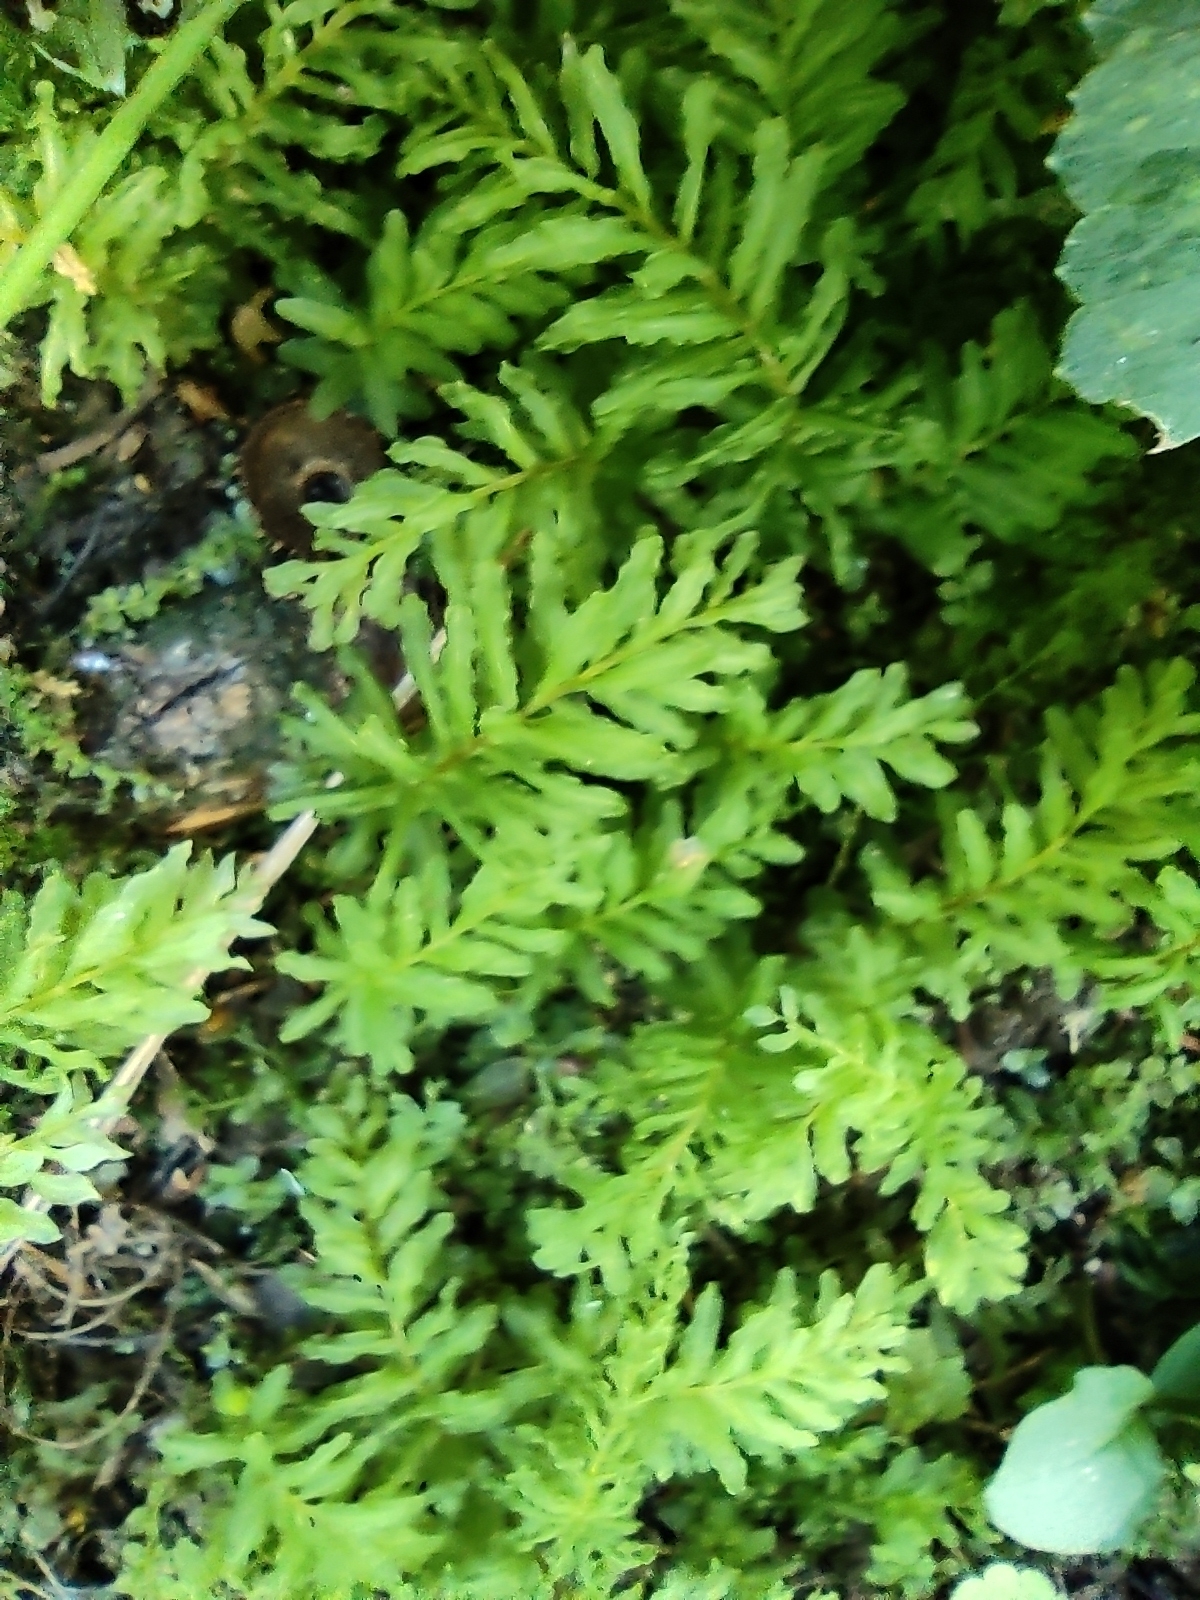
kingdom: Plantae
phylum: Bryophyta
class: Bryopsida
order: Bryales
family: Mniaceae
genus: Plagiomnium
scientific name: Plagiomnium undulatum
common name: Hart's-tongue thyme-moss
